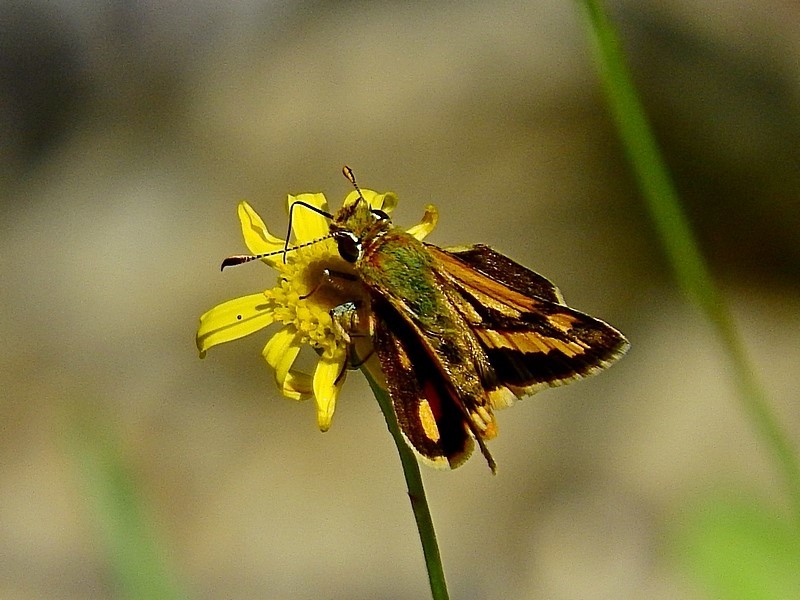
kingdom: Animalia
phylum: Arthropoda
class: Insecta
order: Lepidoptera
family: Hesperiidae
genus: Ocybadistes
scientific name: Ocybadistes walkeri
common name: Yellow-banded dart
